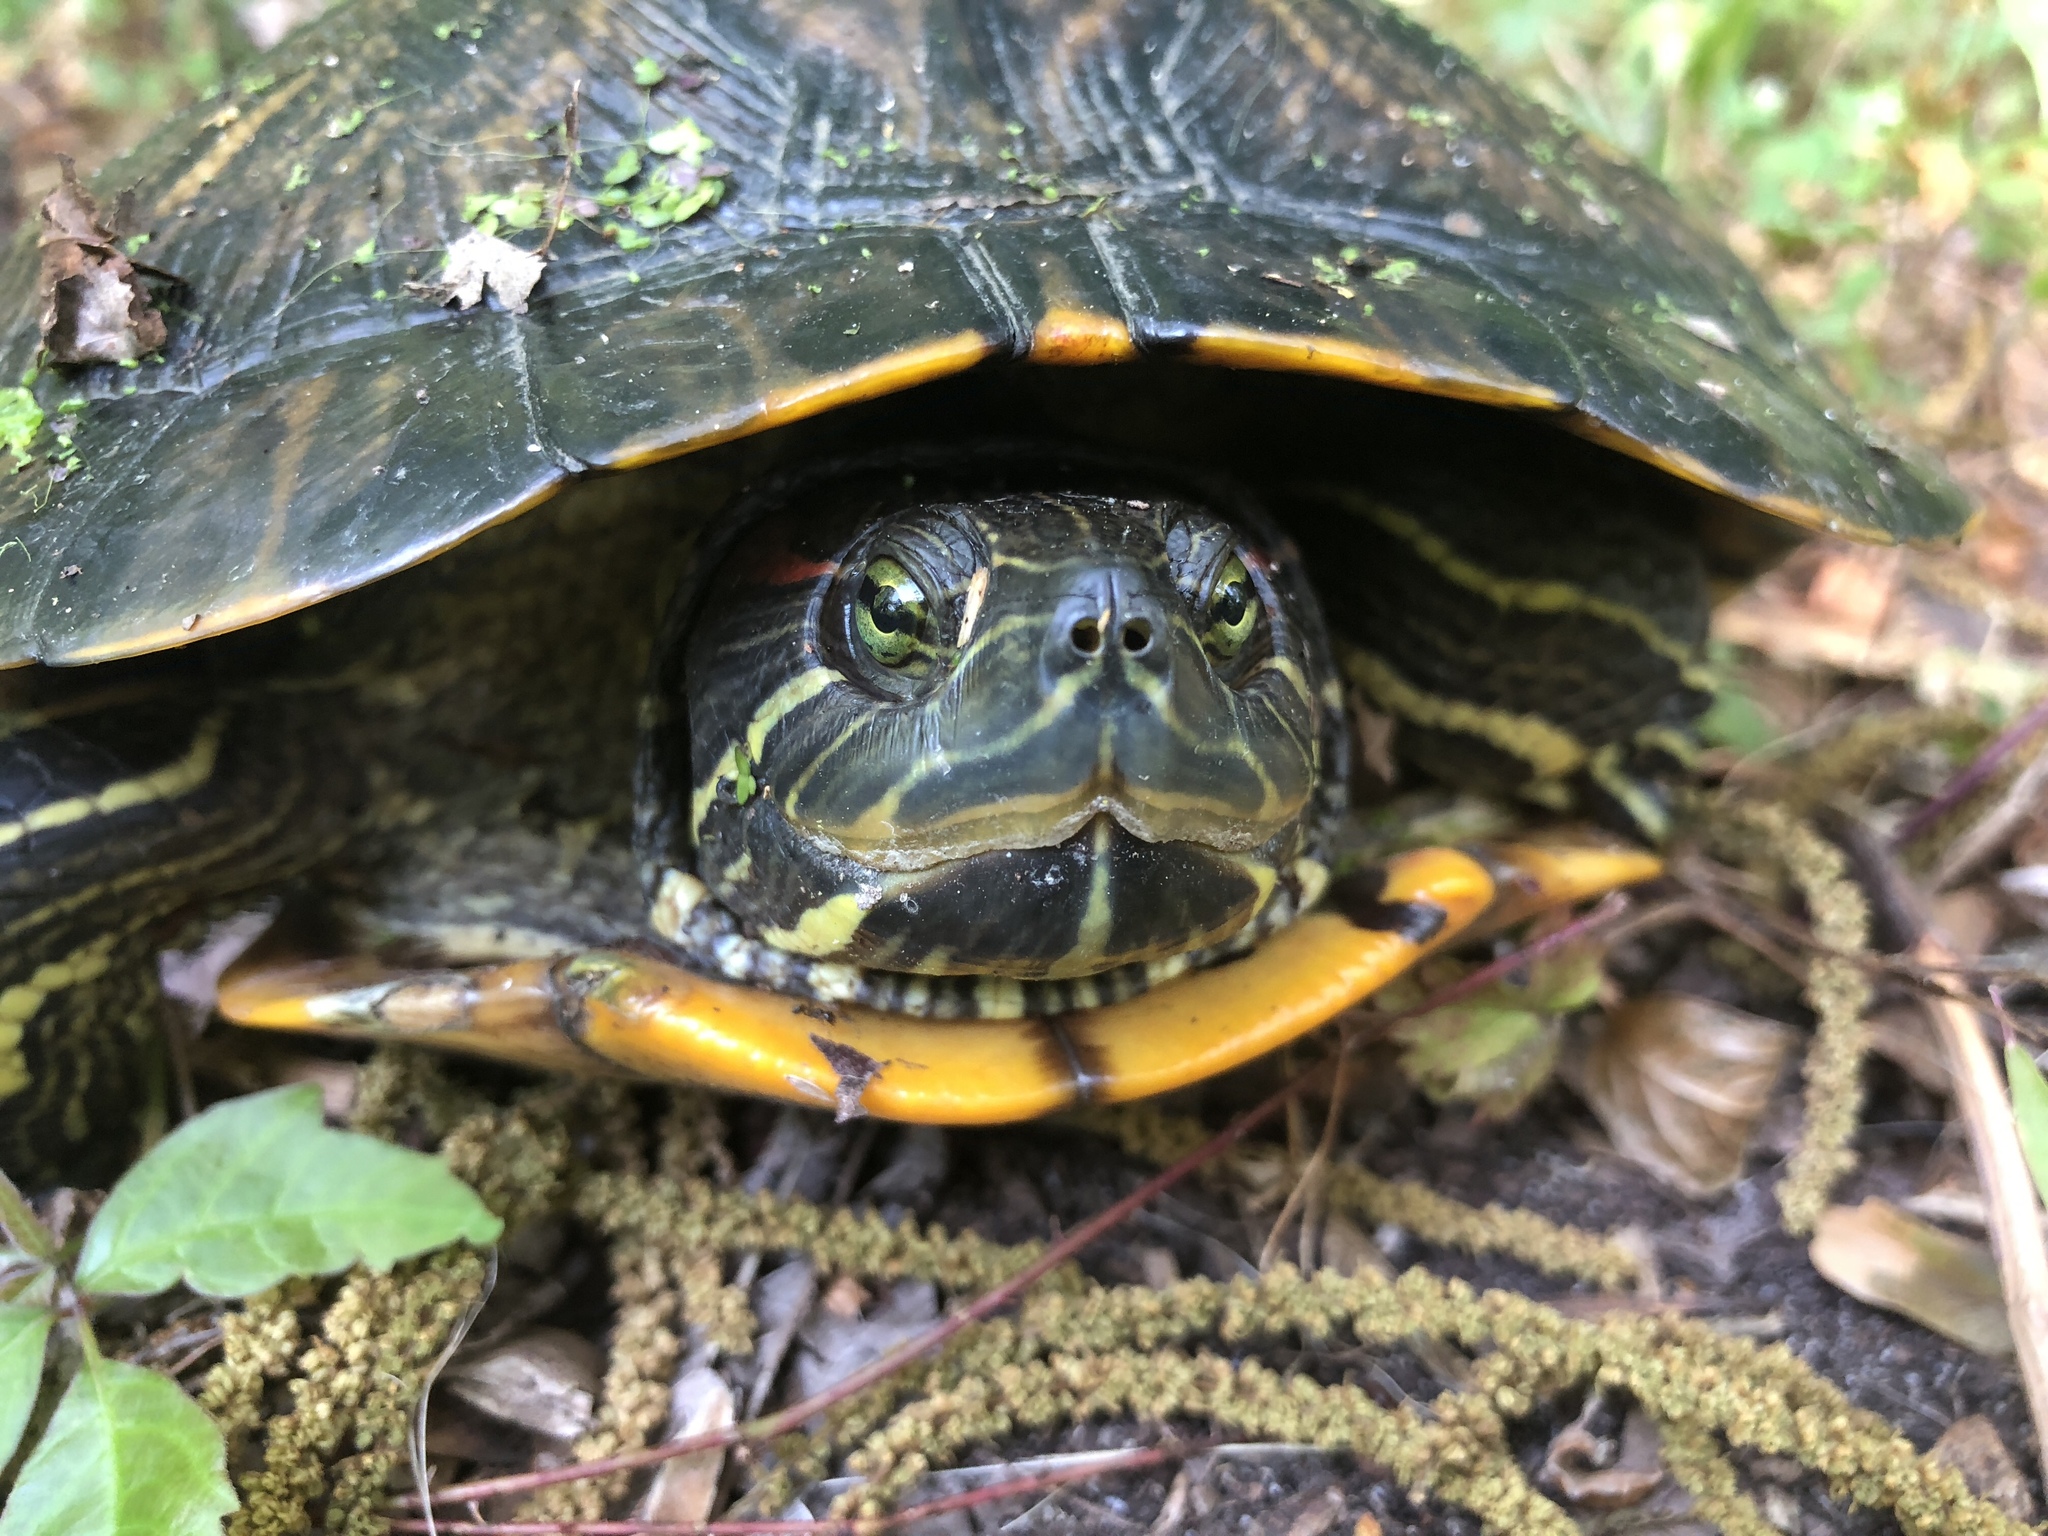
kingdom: Animalia
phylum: Chordata
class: Testudines
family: Emydidae
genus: Trachemys
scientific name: Trachemys scripta
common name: Slider
